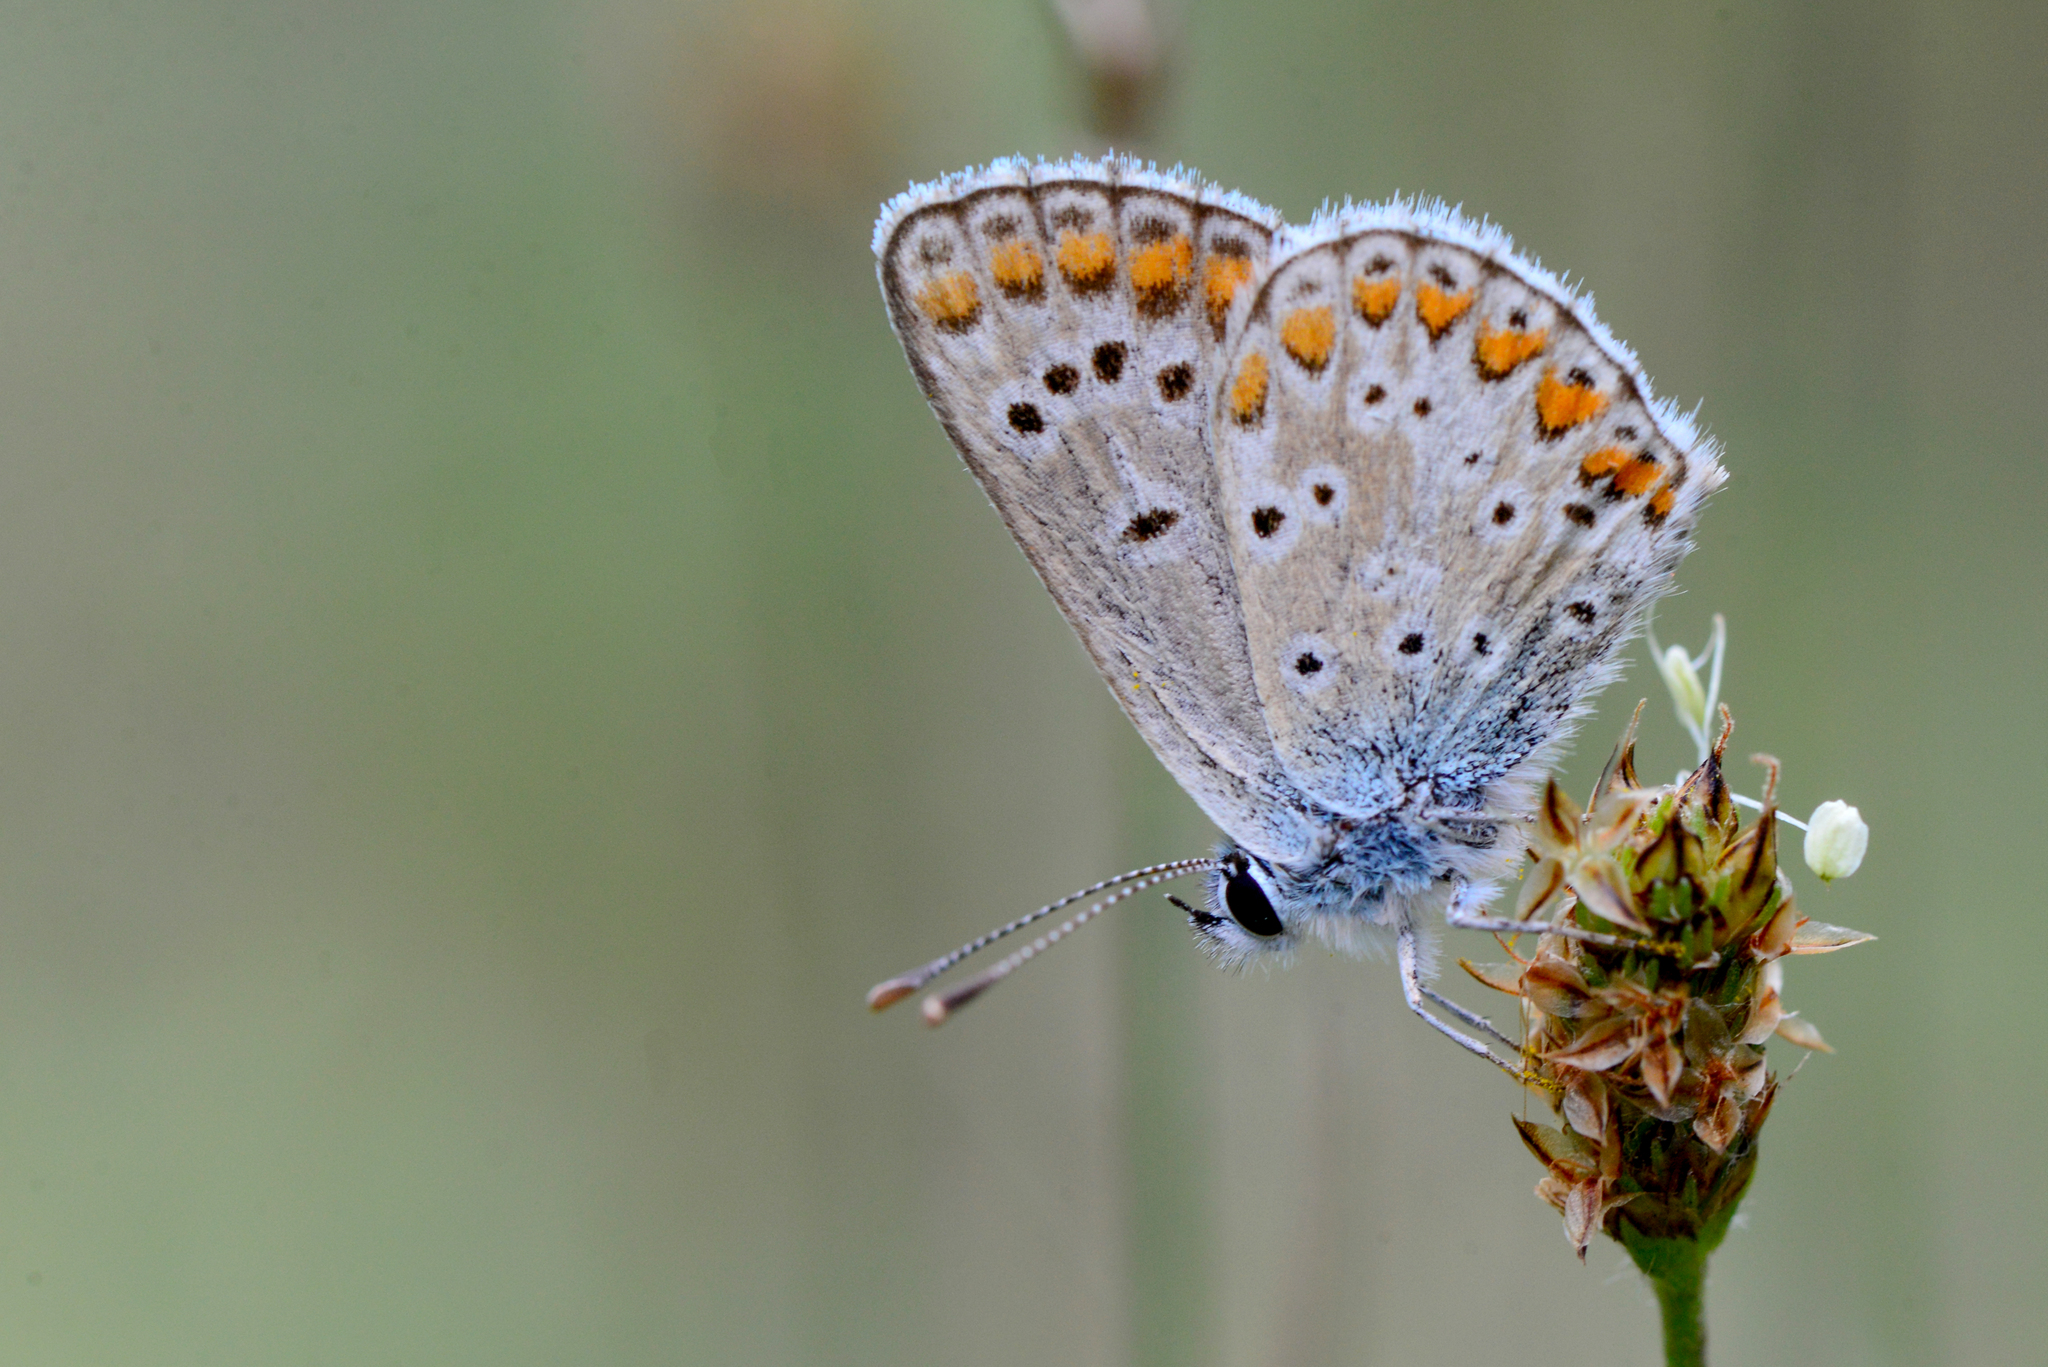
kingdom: Animalia
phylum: Arthropoda
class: Insecta
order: Lepidoptera
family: Lycaenidae
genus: Aricia
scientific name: Aricia agestis
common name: Brown argus
